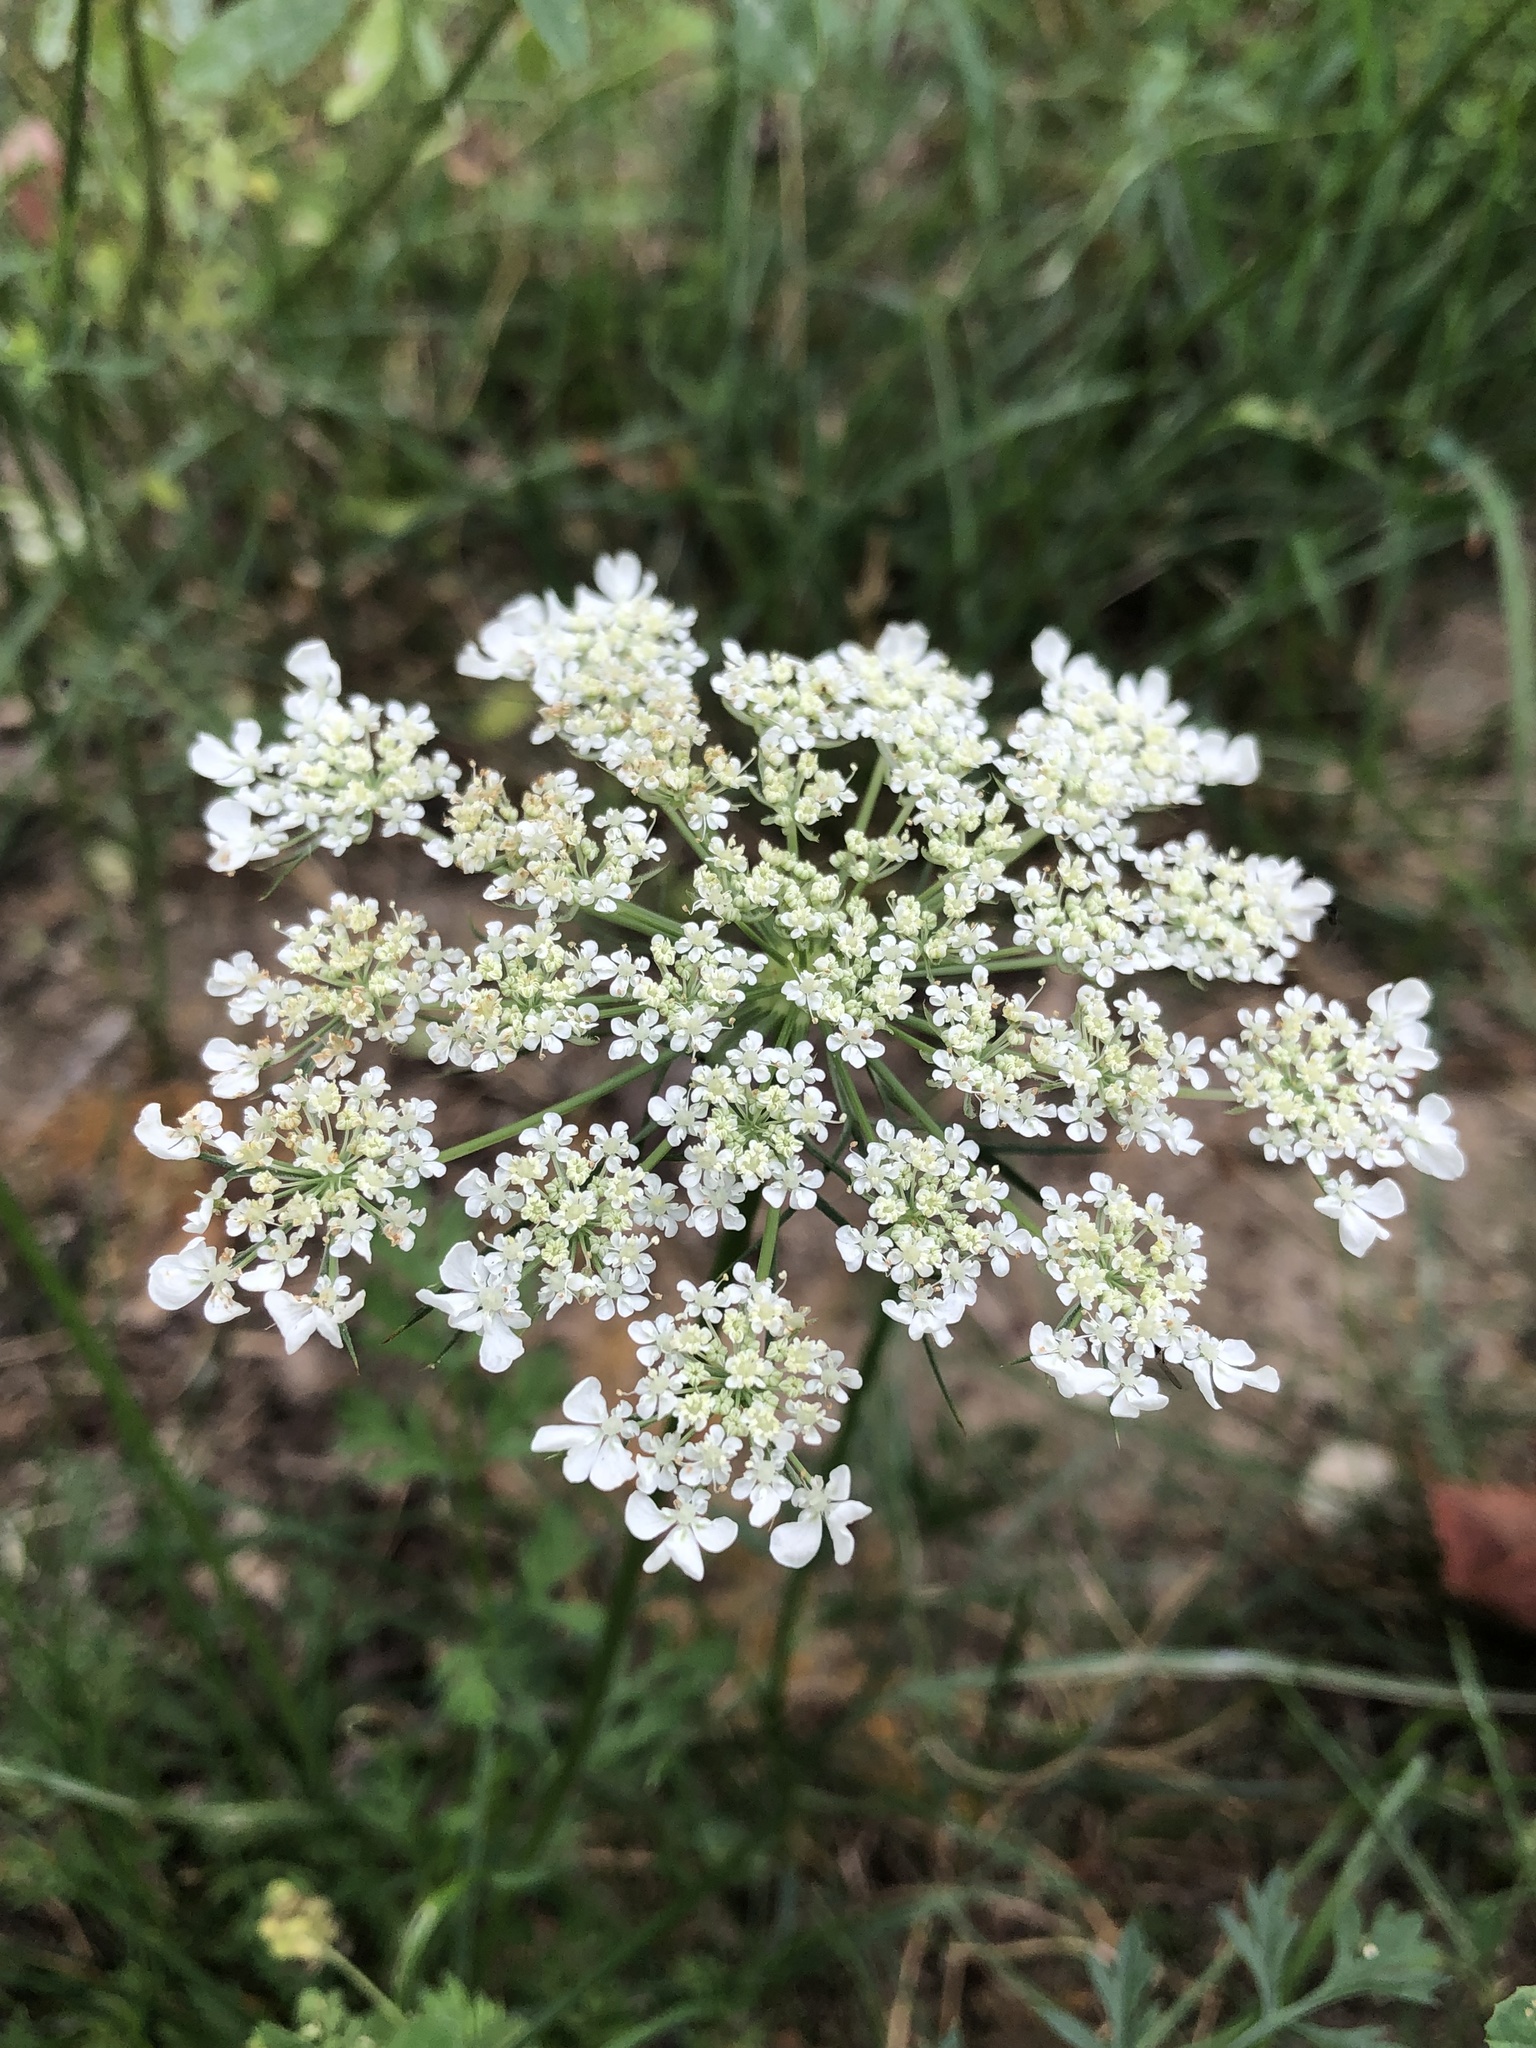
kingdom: Plantae
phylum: Tracheophyta
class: Magnoliopsida
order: Apiales
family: Apiaceae
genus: Daucus
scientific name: Daucus carota
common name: Wild carrot
